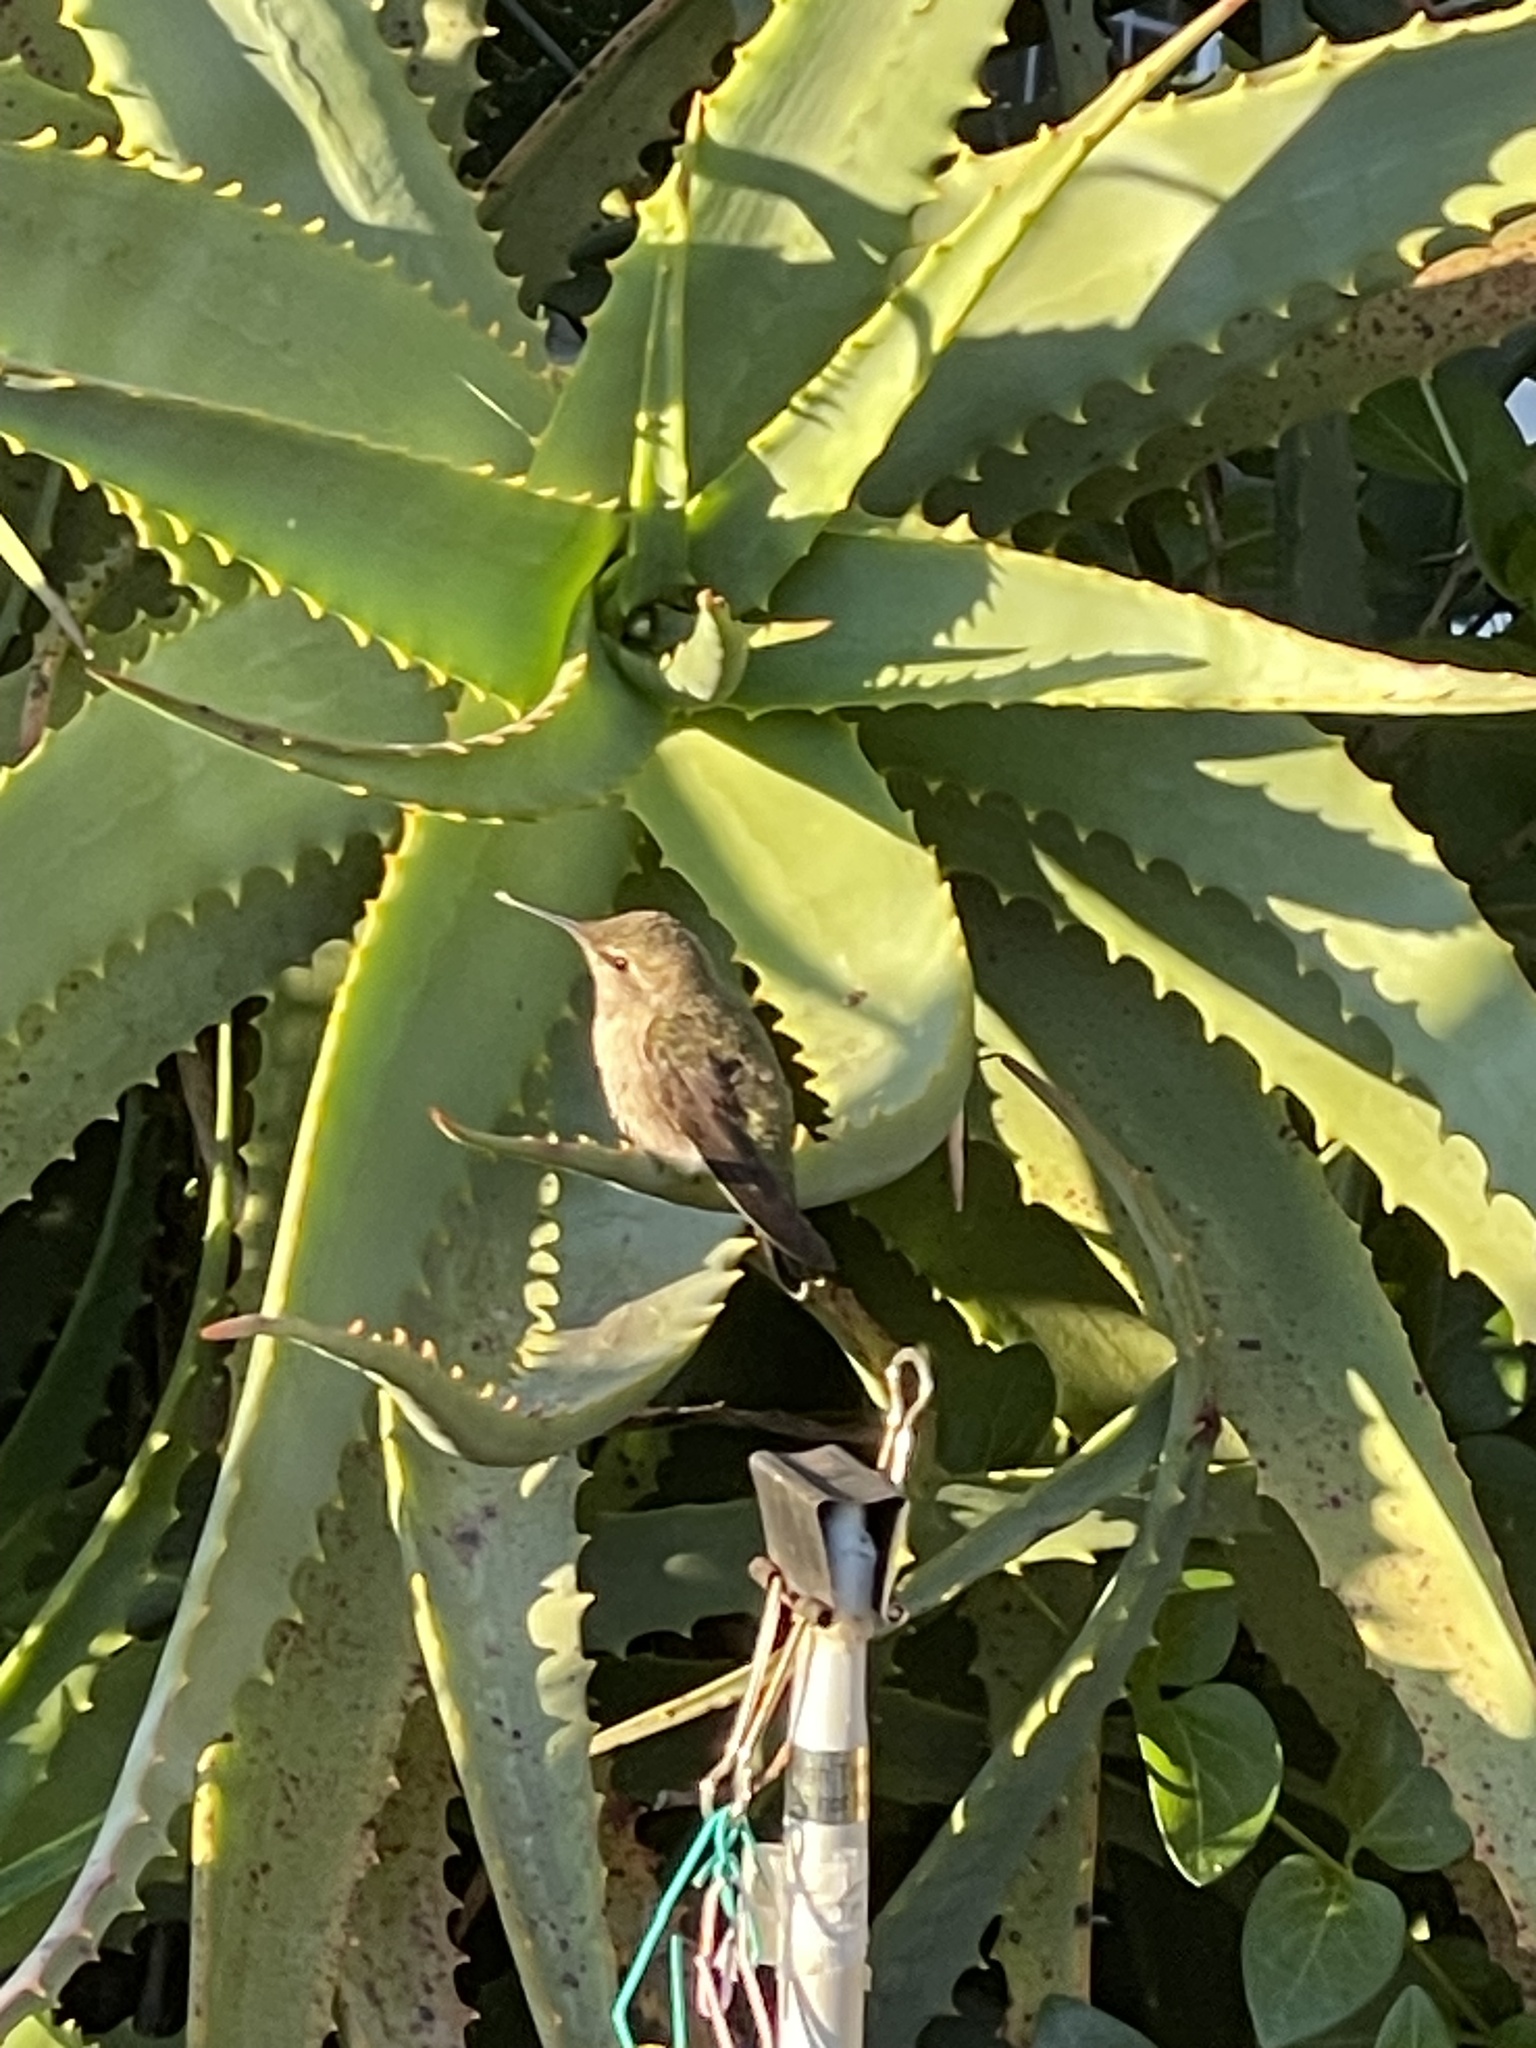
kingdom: Animalia
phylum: Chordata
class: Aves
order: Apodiformes
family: Trochilidae
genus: Calypte
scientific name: Calypte anna
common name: Anna's hummingbird
